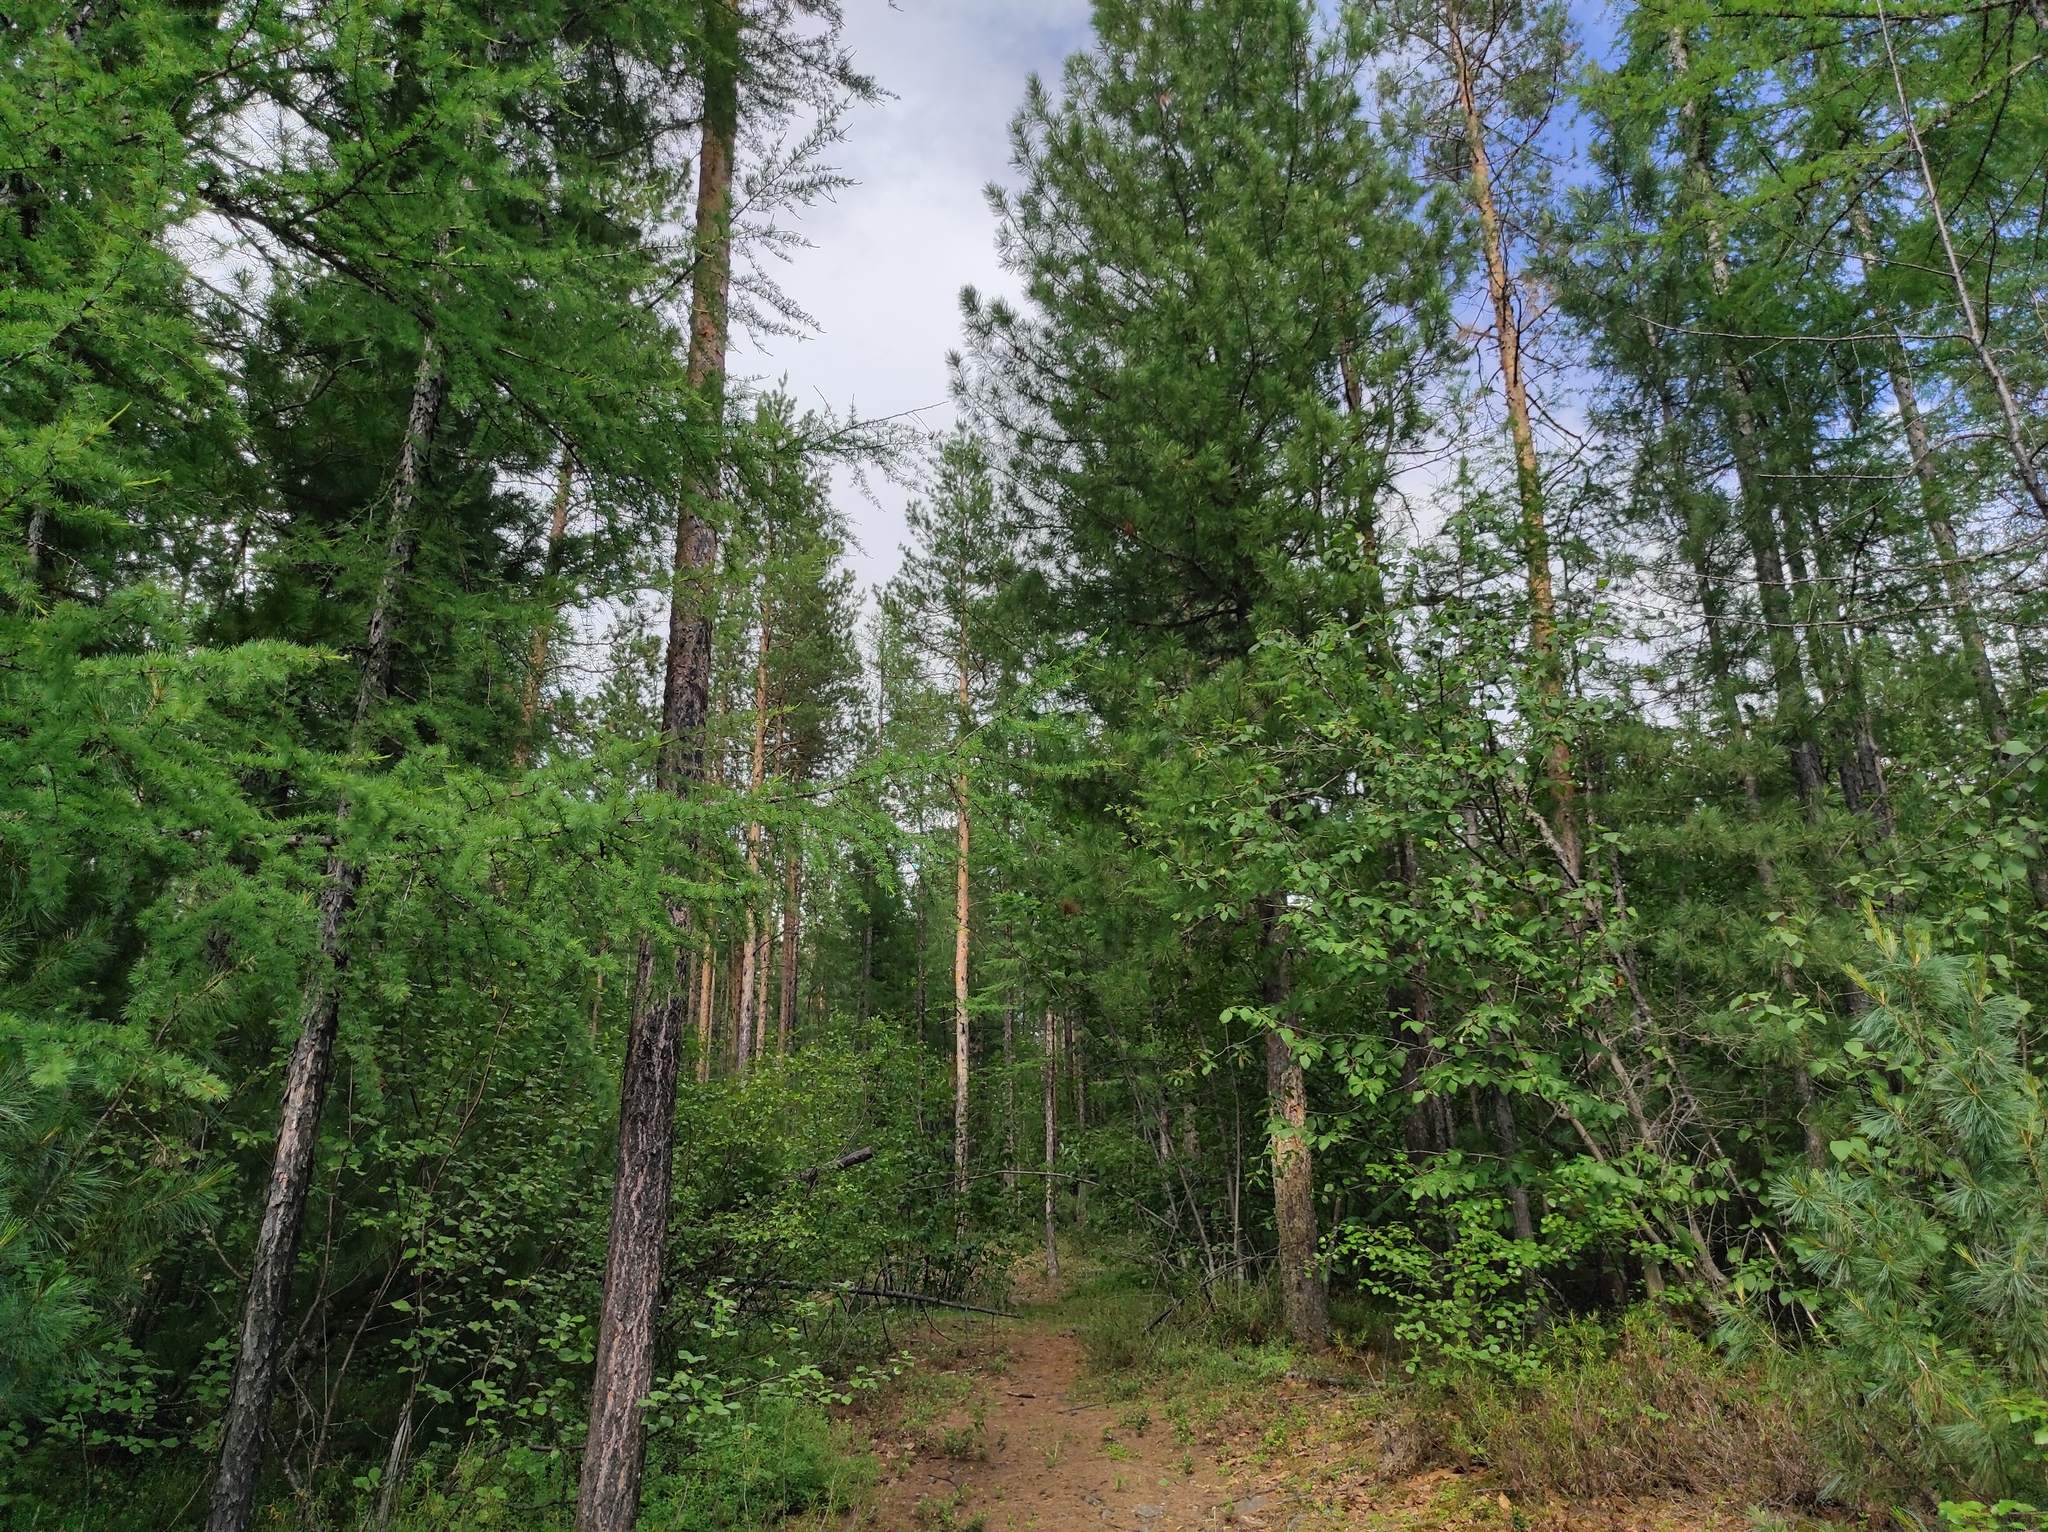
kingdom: Plantae
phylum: Tracheophyta
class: Pinopsida
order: Pinales
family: Pinaceae
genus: Pinus
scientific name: Pinus sylvestris
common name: Scots pine
